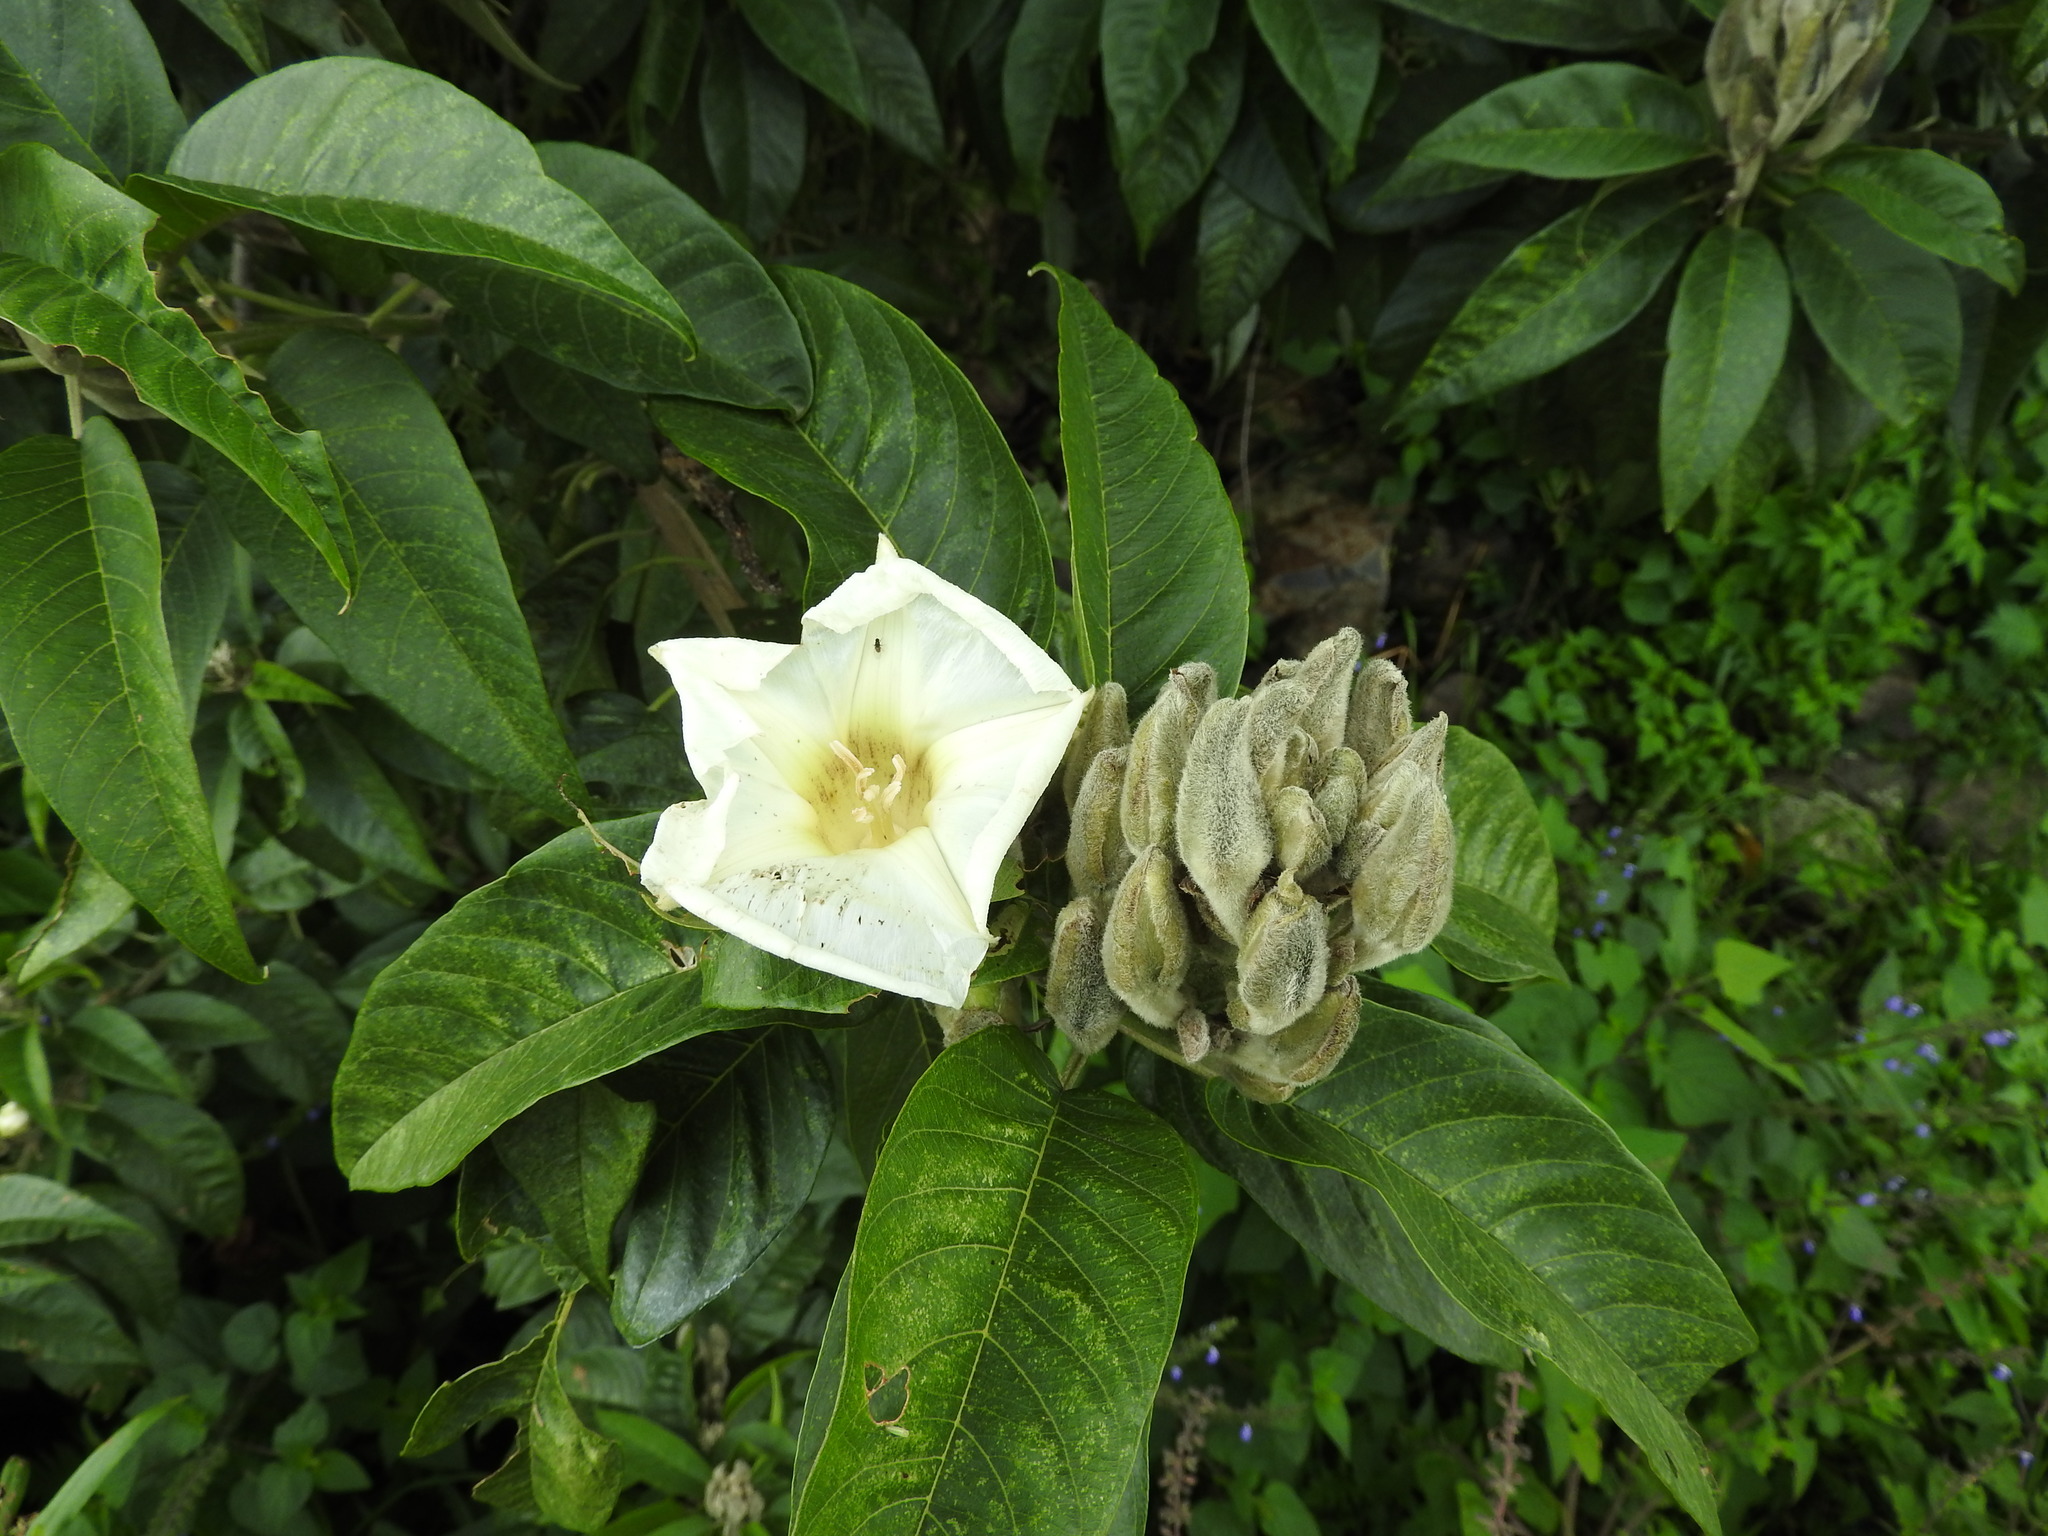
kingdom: Plantae
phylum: Tracheophyta
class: Magnoliopsida
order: Solanales
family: Convolvulaceae
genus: Ipomoea
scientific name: Ipomoea murucoides
